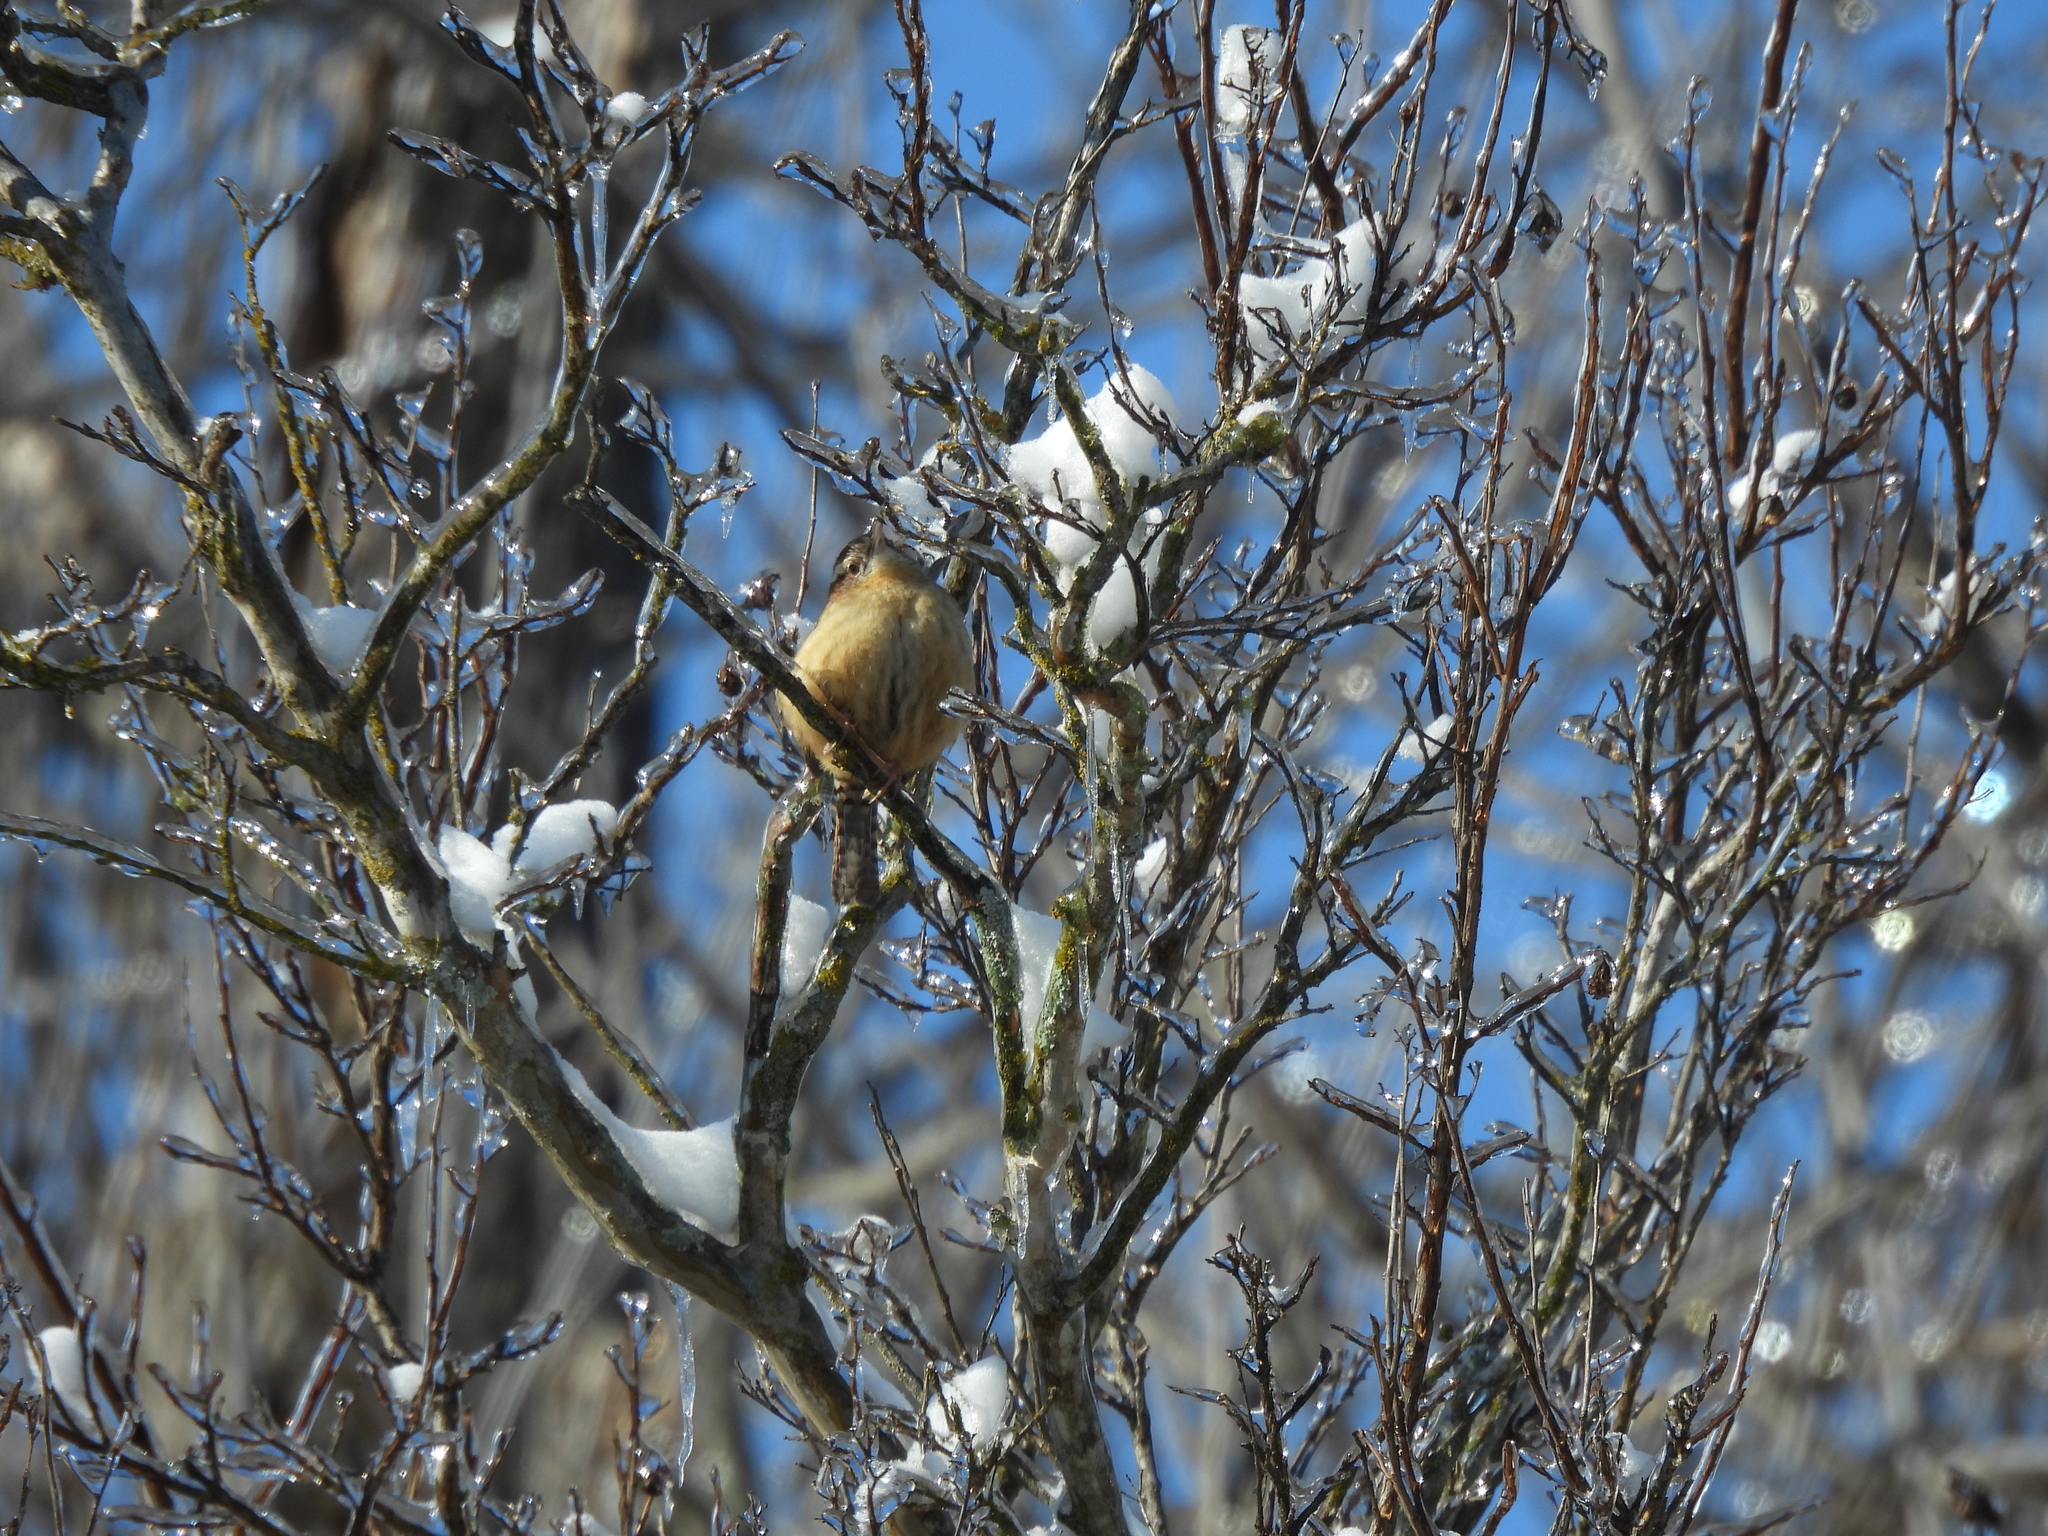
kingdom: Animalia
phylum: Chordata
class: Aves
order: Passeriformes
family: Troglodytidae
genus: Thryothorus
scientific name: Thryothorus ludovicianus
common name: Carolina wren
